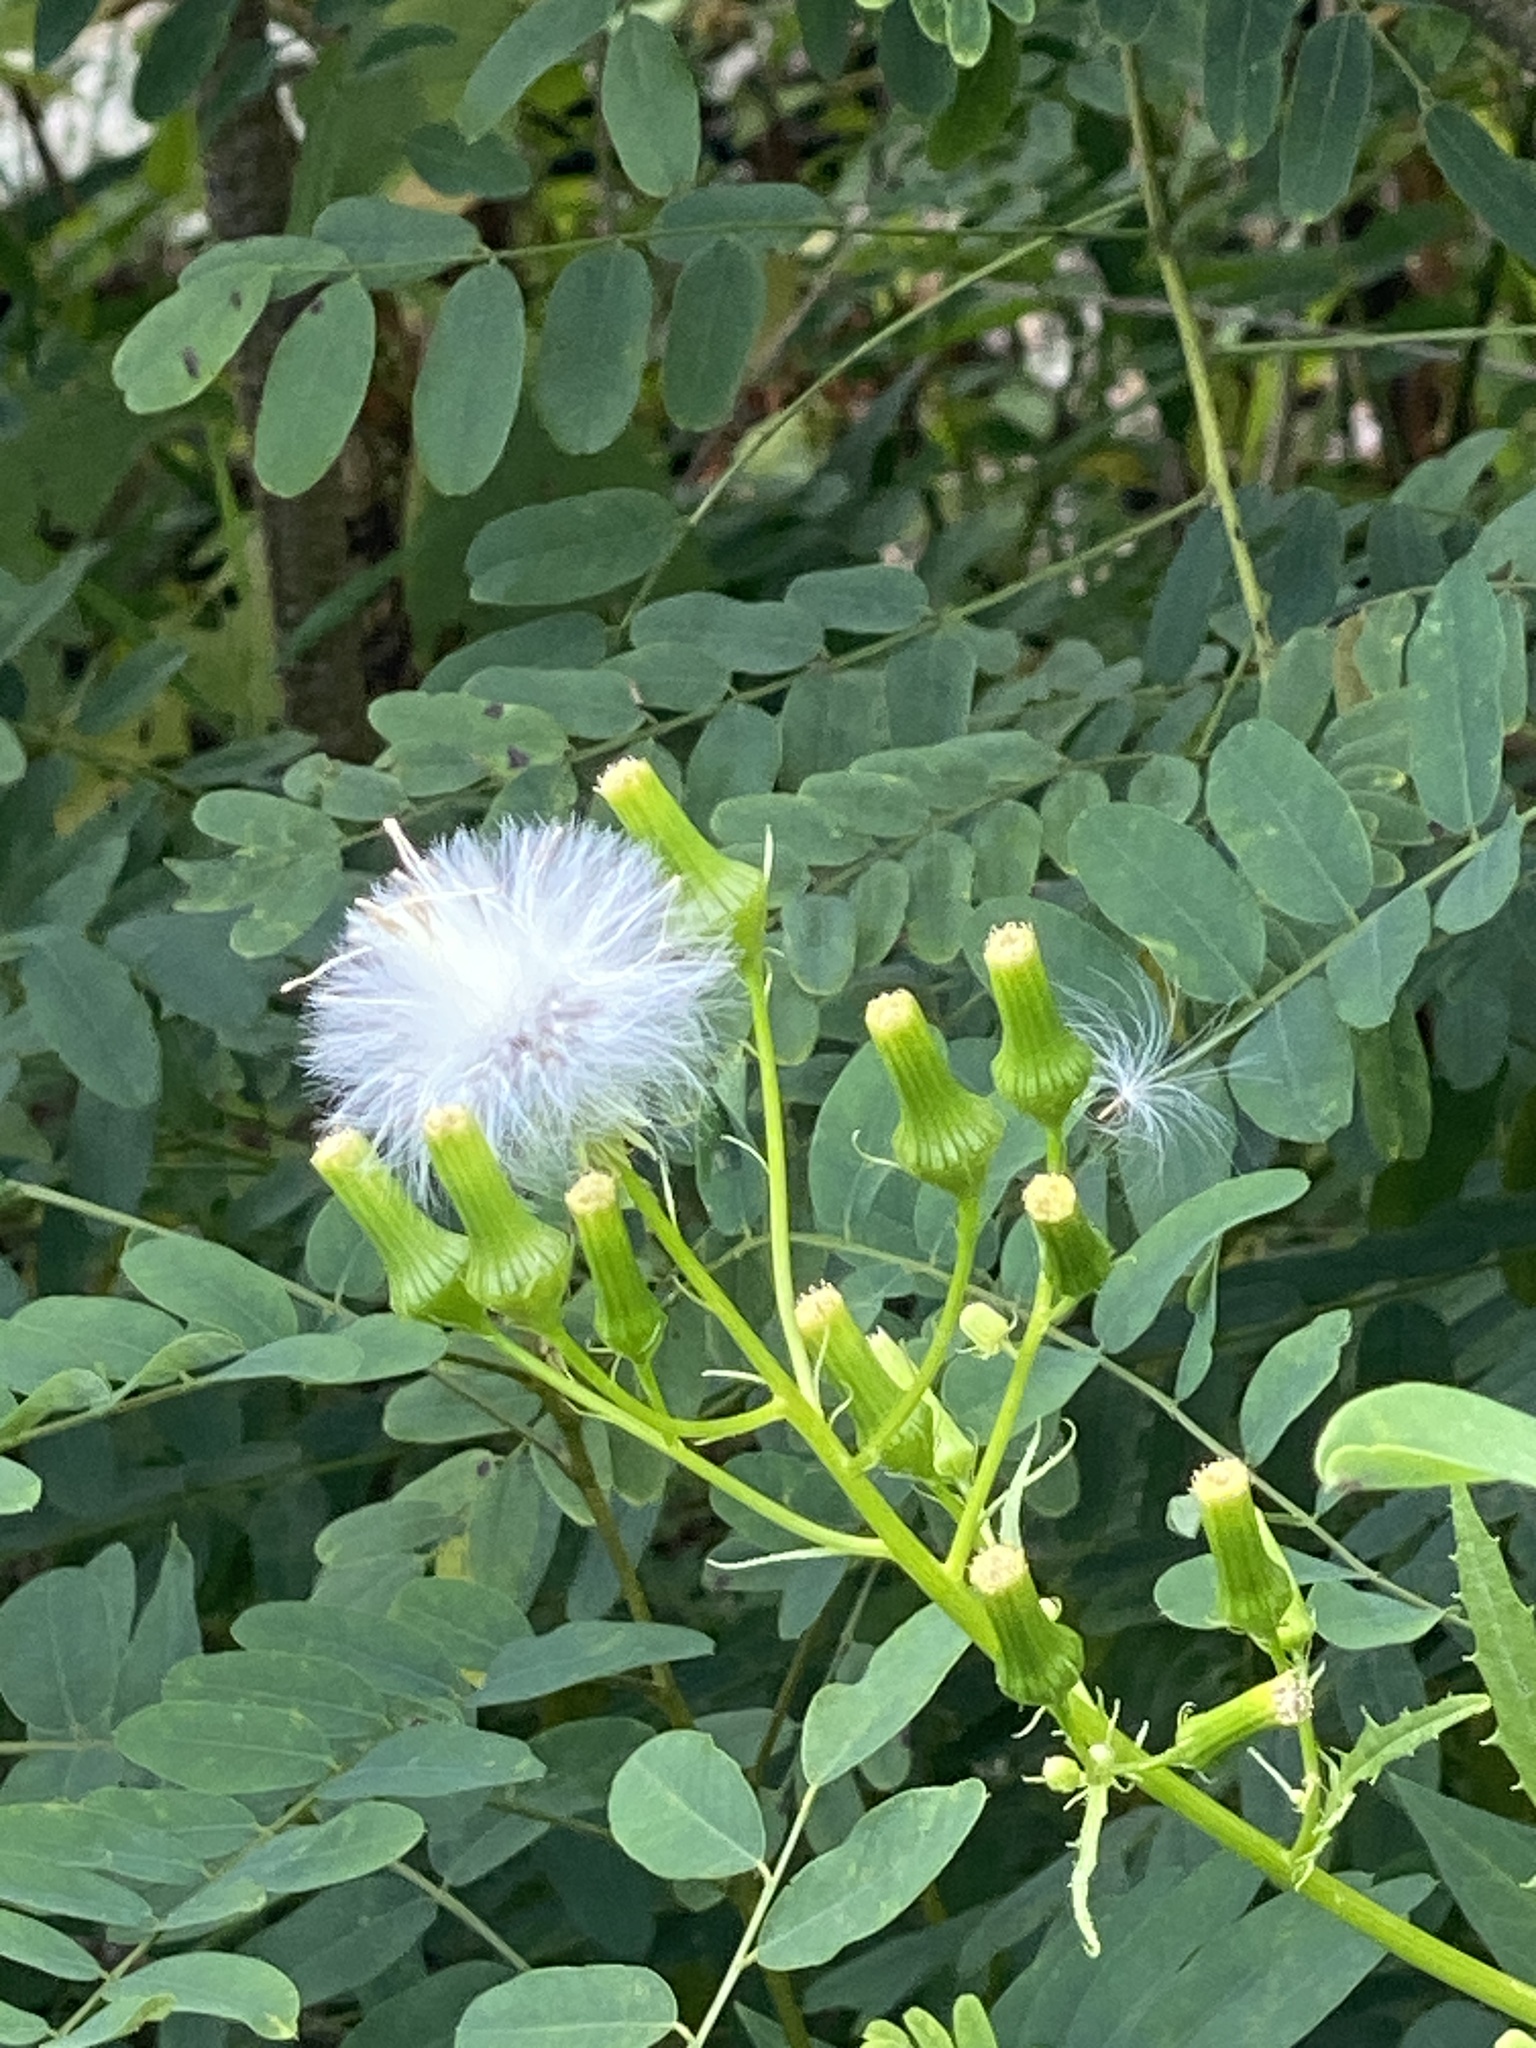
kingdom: Plantae
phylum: Tracheophyta
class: Magnoliopsida
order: Asterales
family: Asteraceae
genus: Erechtites
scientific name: Erechtites hieraciifolius
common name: American burnweed
